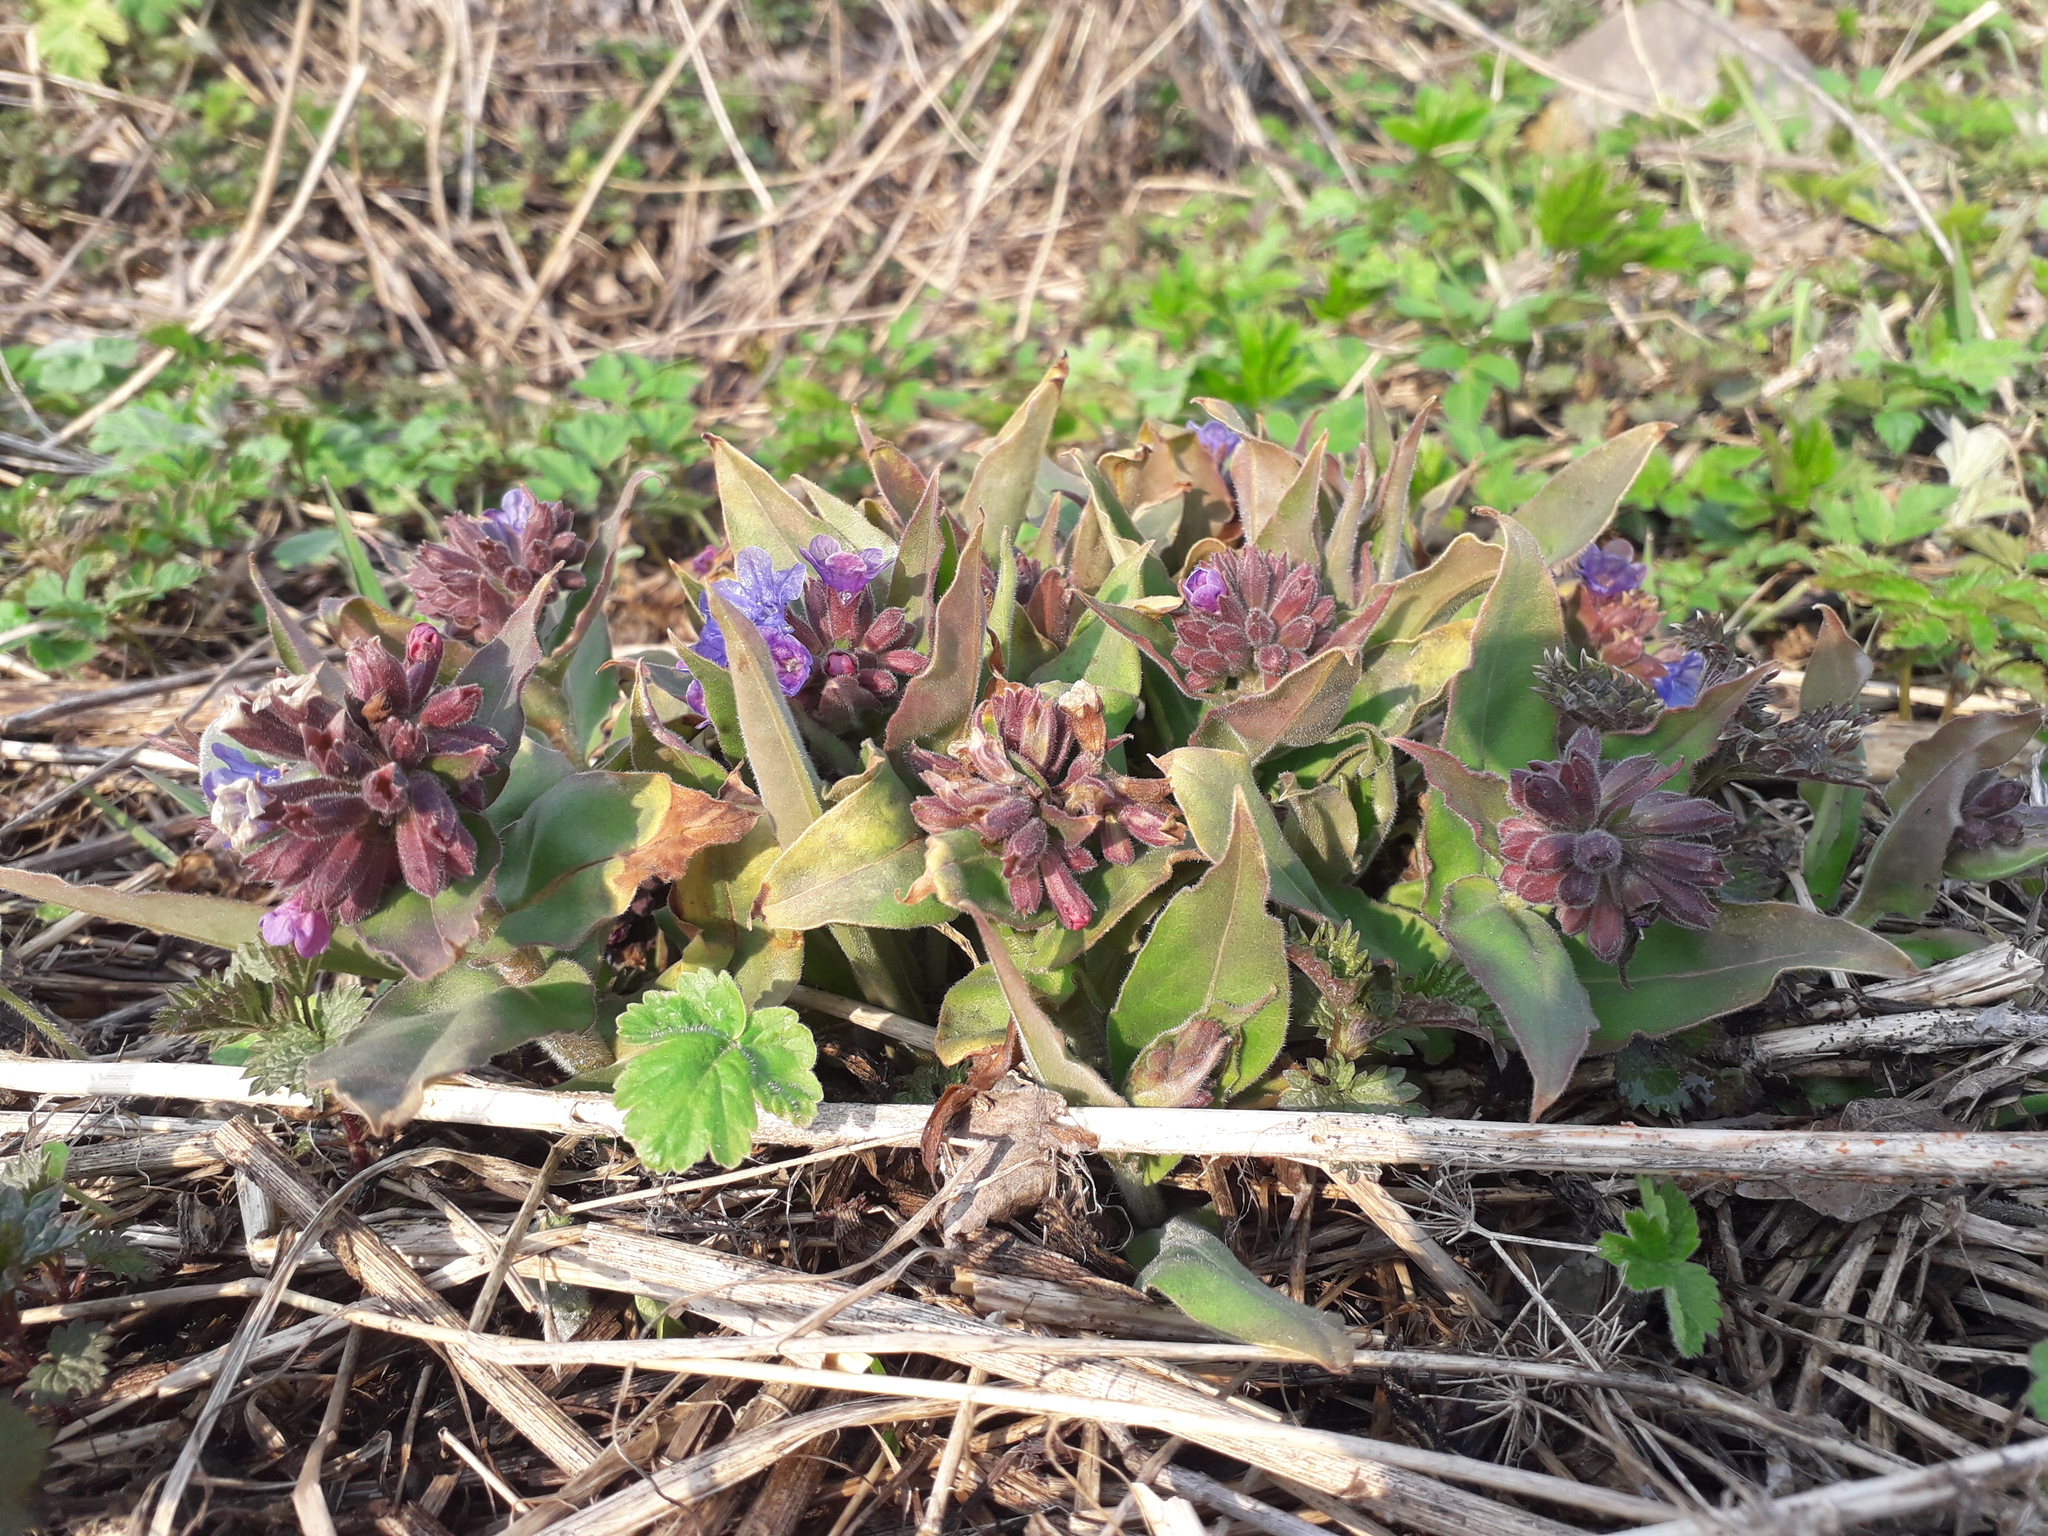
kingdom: Plantae
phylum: Tracheophyta
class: Magnoliopsida
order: Boraginales
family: Boraginaceae
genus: Pulmonaria
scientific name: Pulmonaria mollis
